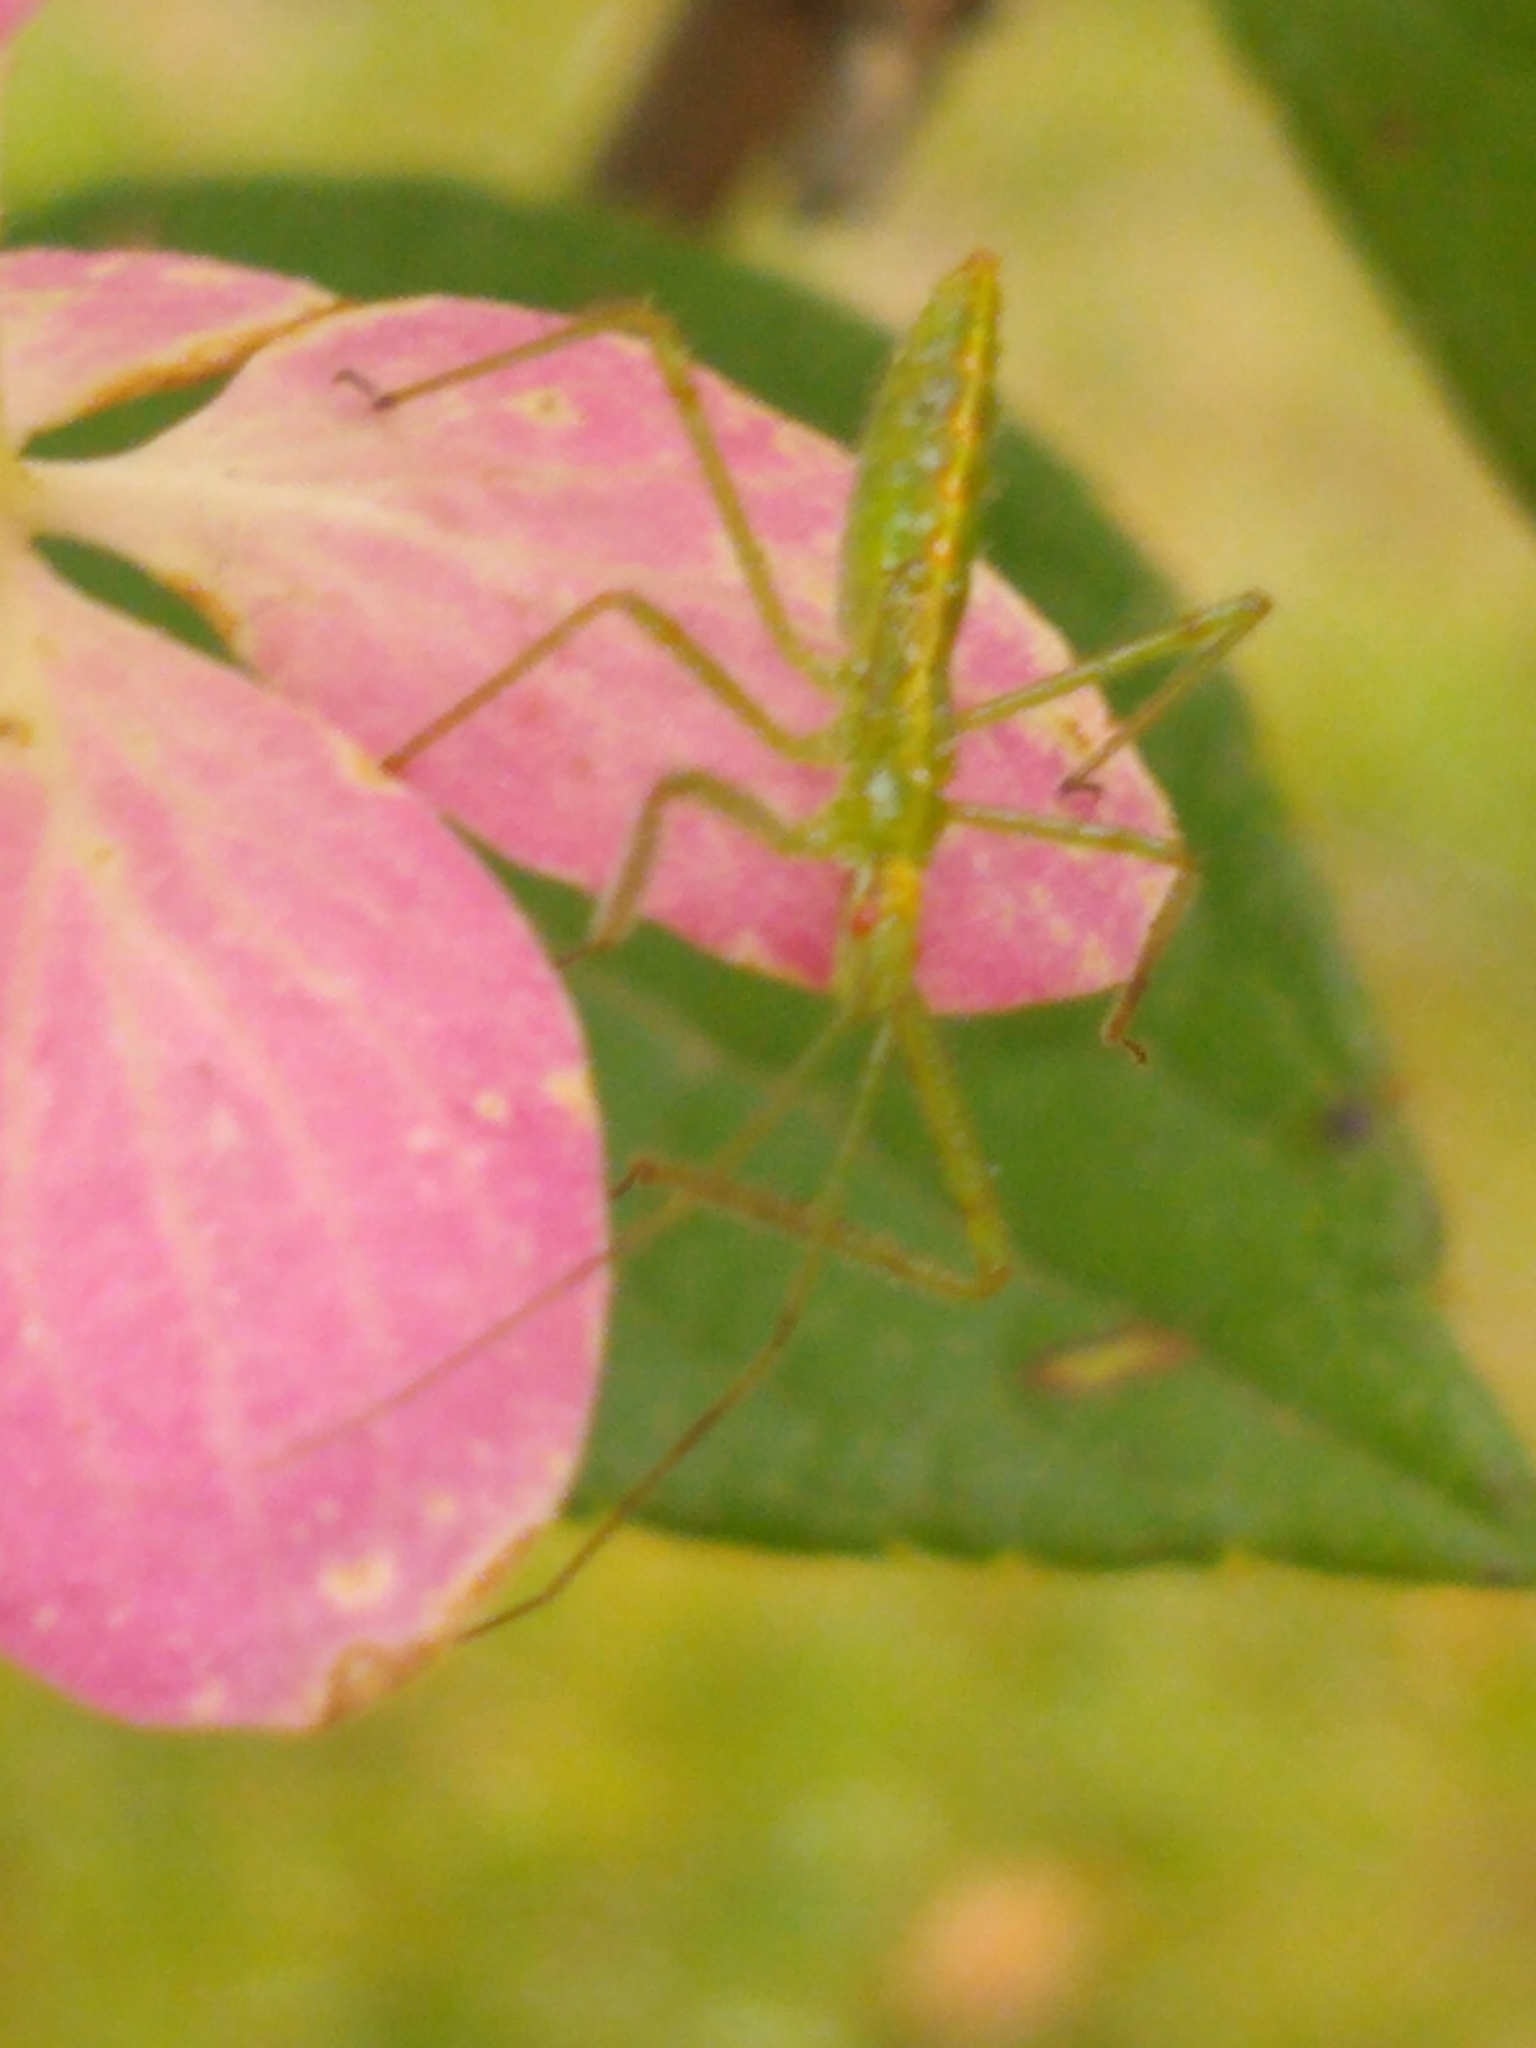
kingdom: Animalia
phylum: Arthropoda
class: Insecta
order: Hemiptera
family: Reduviidae
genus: Zelus
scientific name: Zelus luridus
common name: Pale green assassin bug
